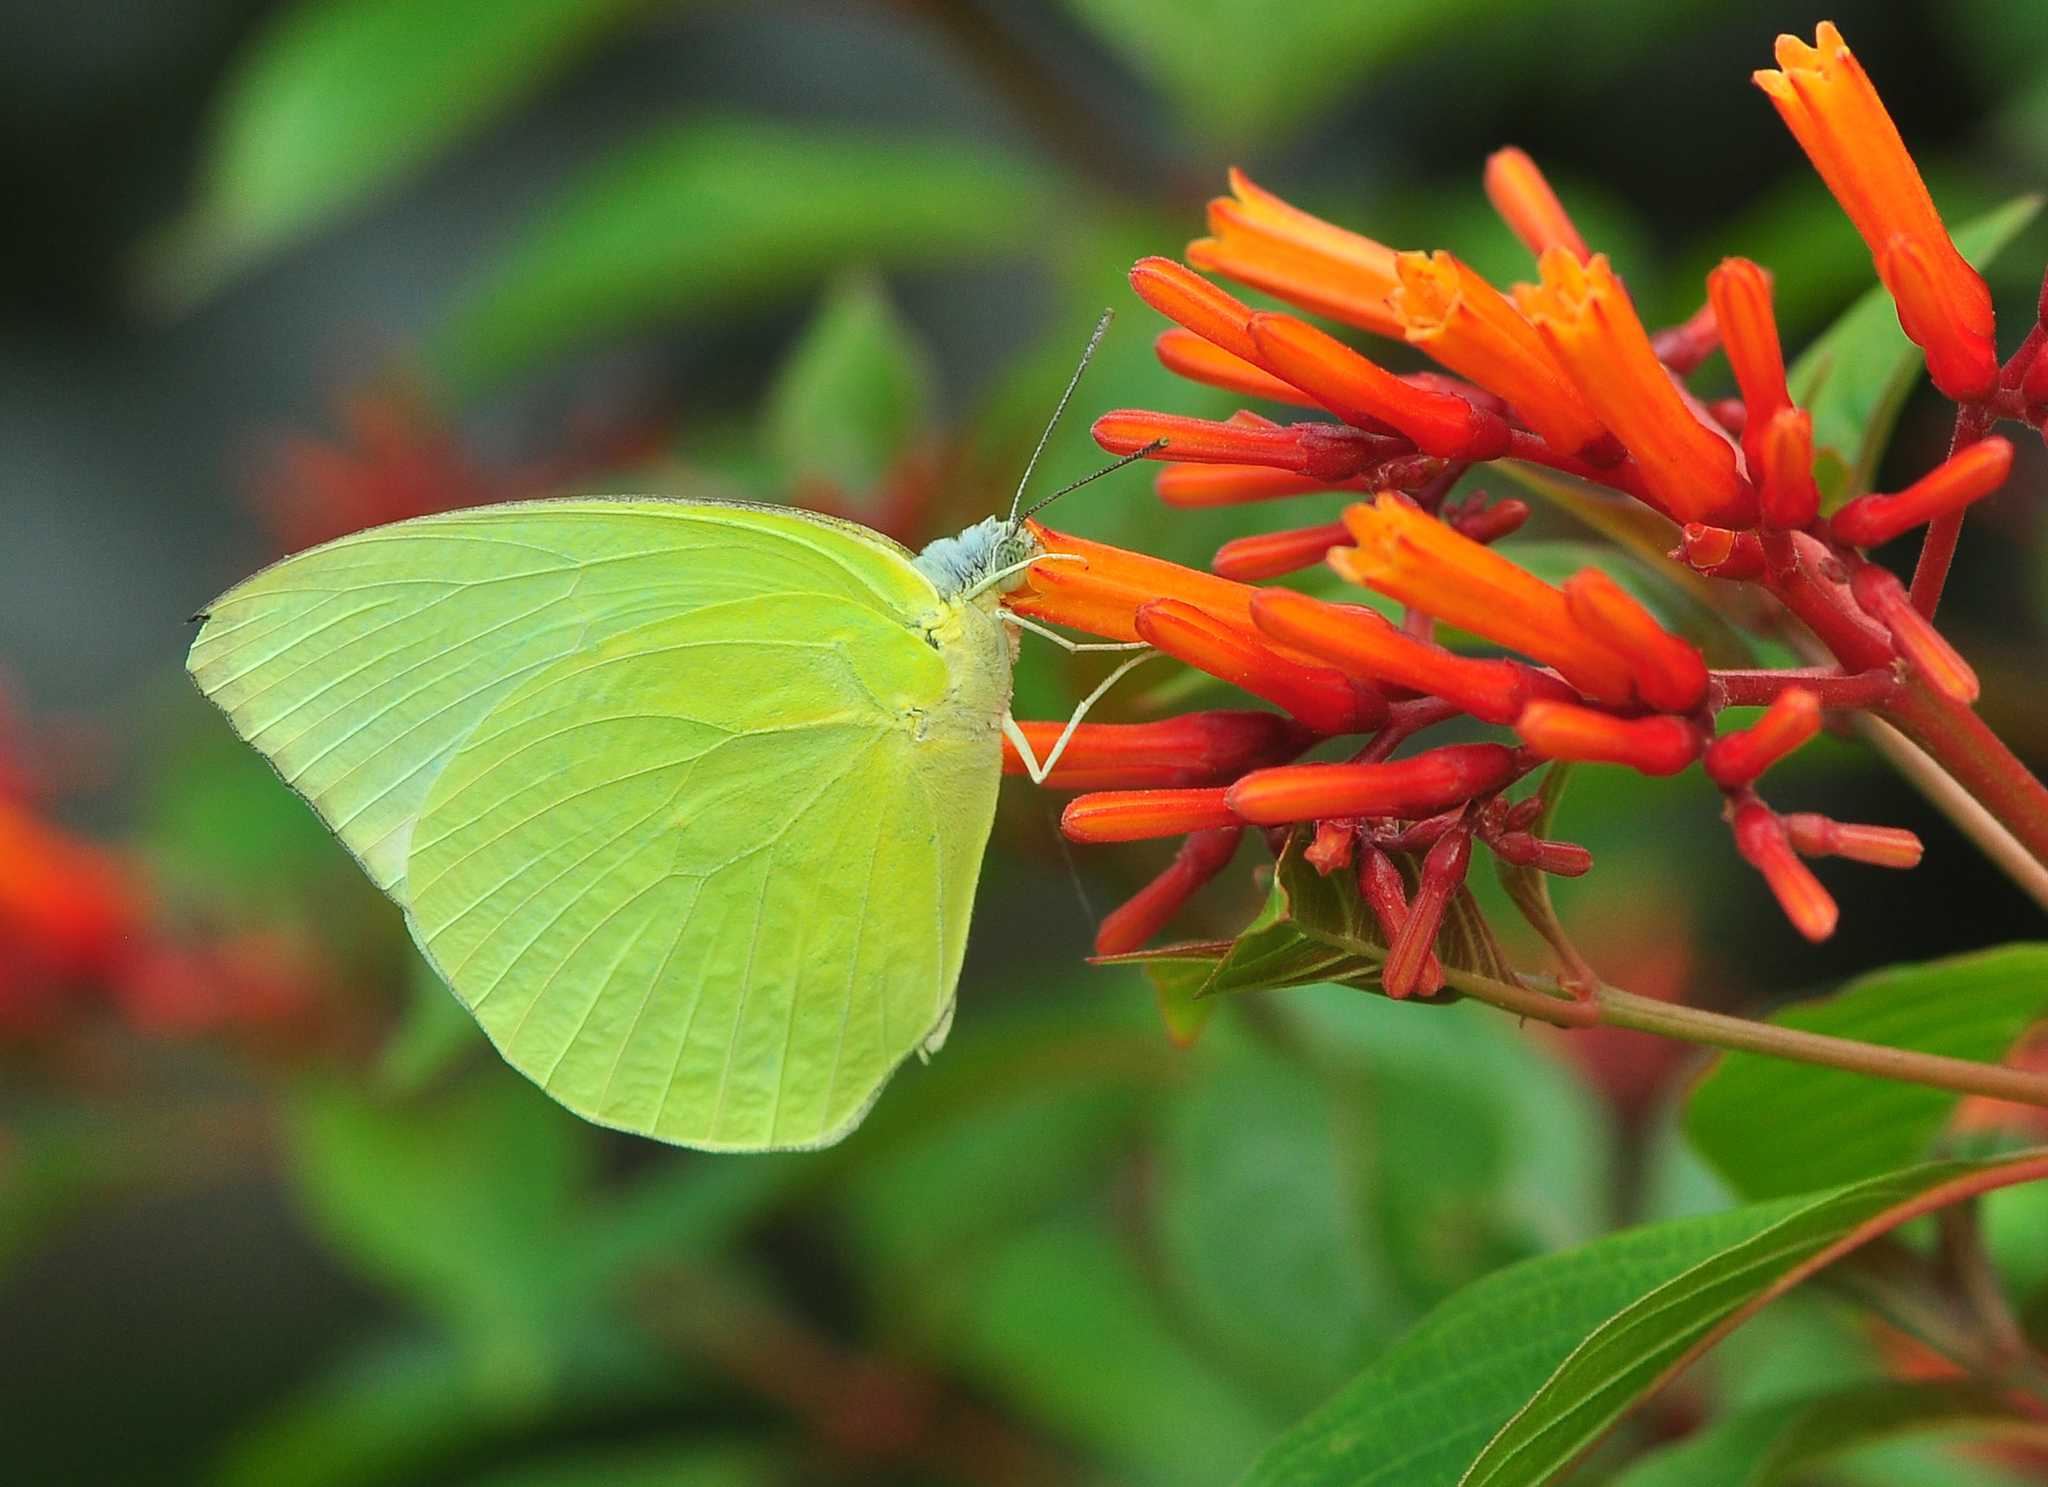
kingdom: Animalia
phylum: Arthropoda
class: Insecta
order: Lepidoptera
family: Pieridae
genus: Catopsilia
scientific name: Catopsilia pomona
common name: Common emigrant
